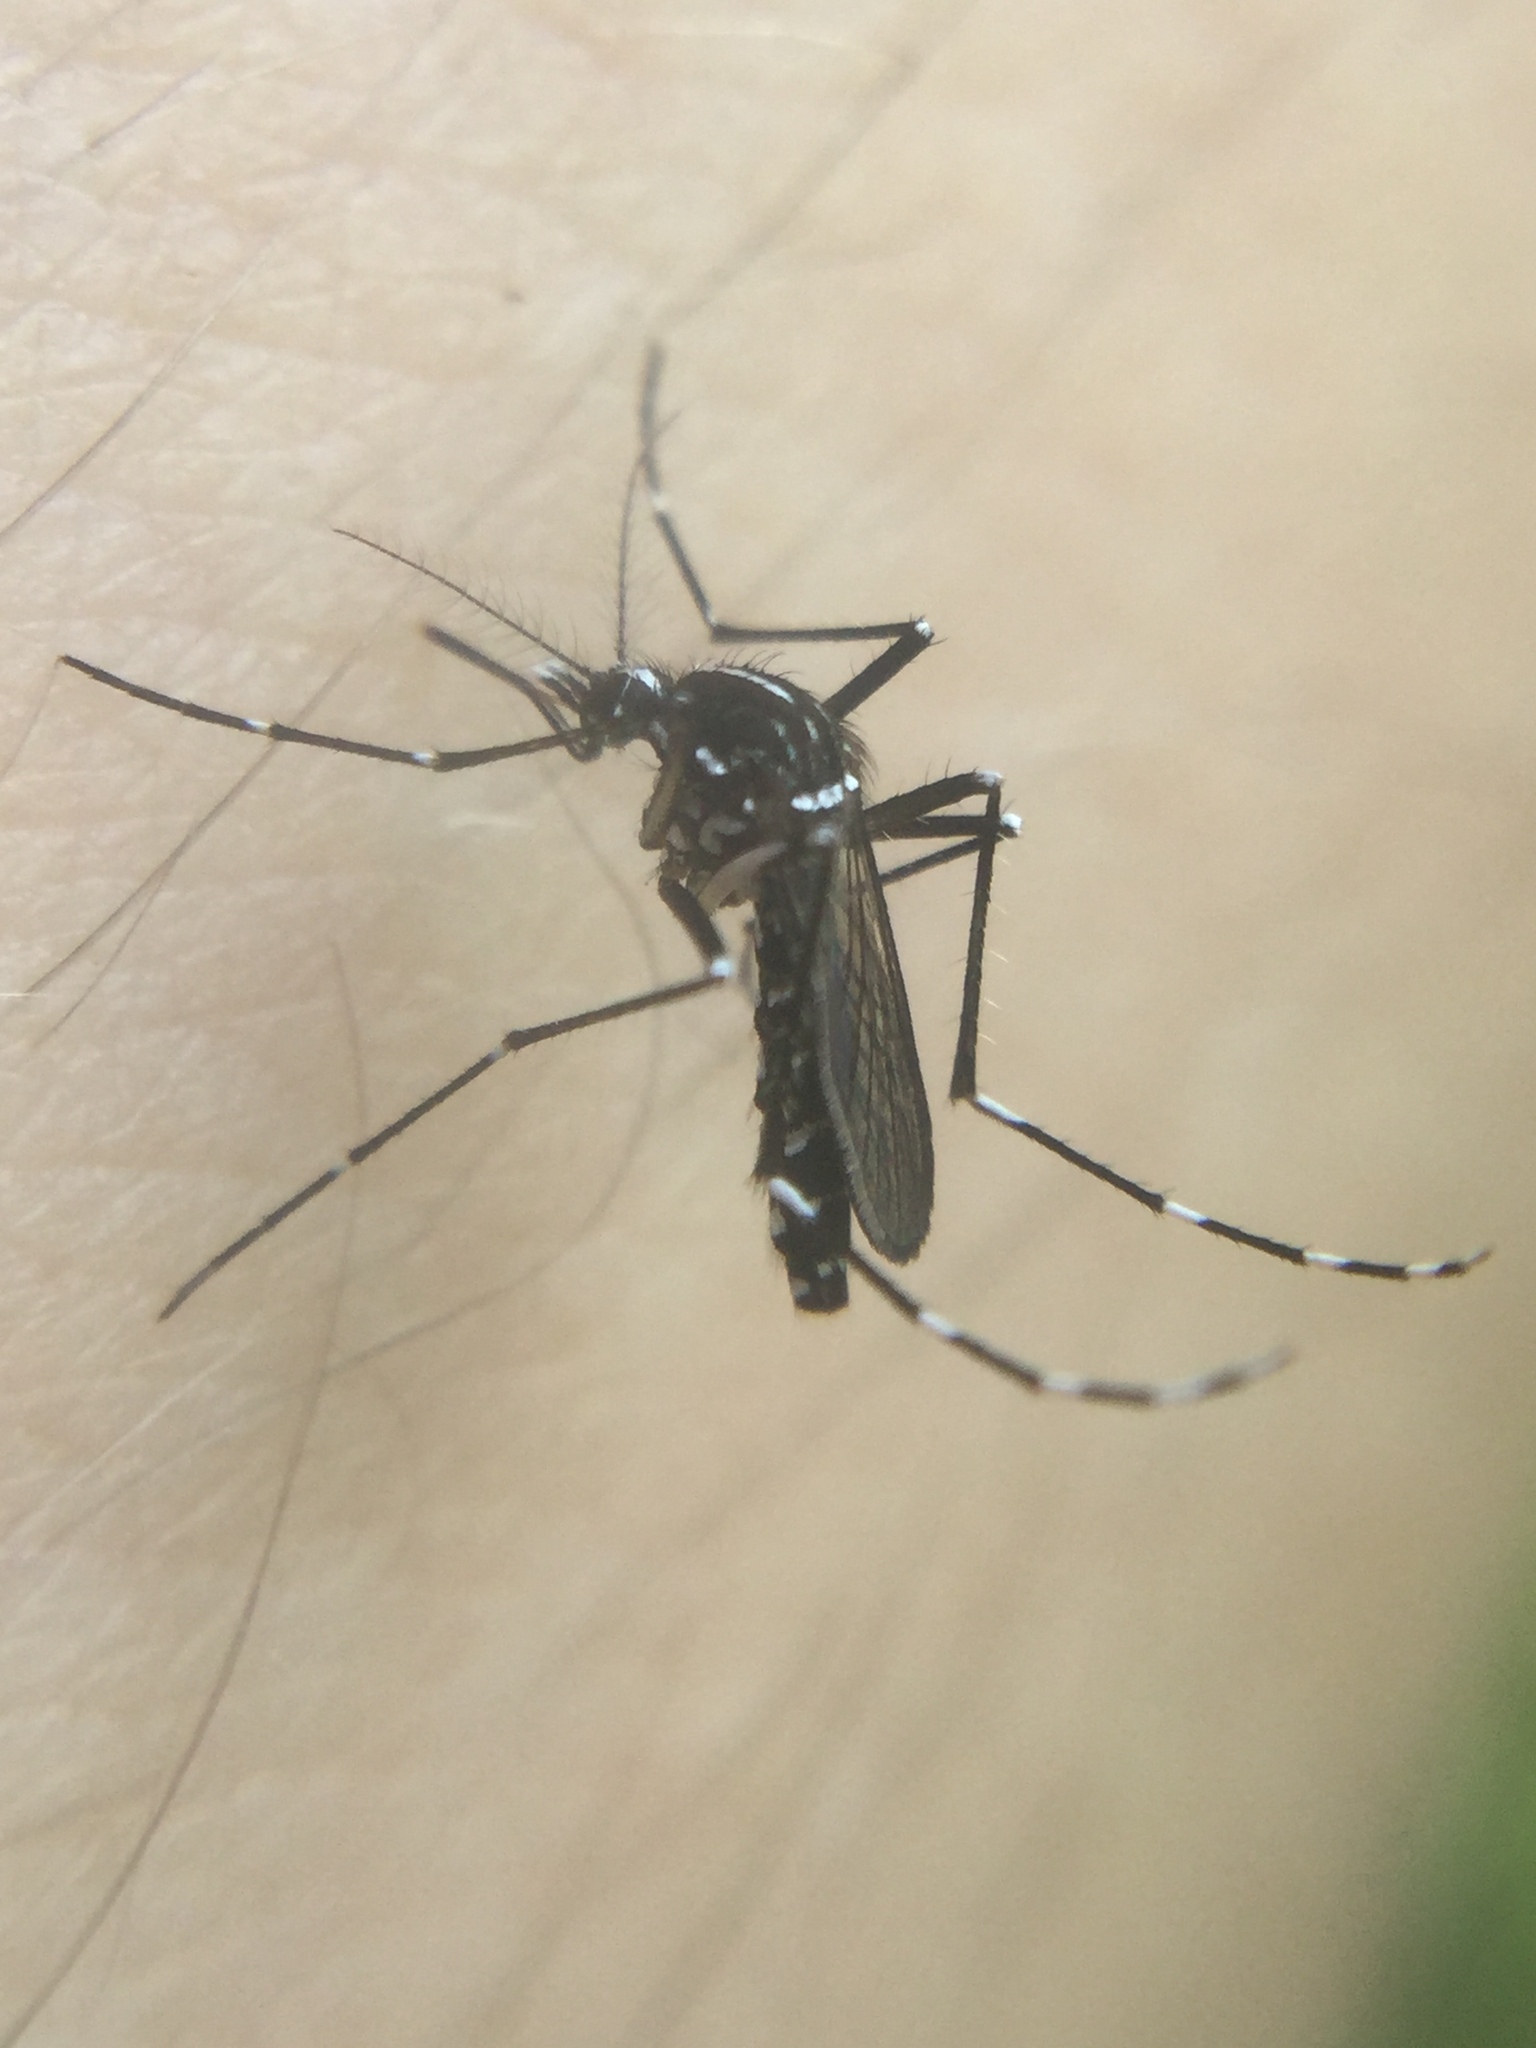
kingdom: Animalia
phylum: Arthropoda
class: Insecta
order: Diptera
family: Culicidae
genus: Aedes
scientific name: Aedes albopictus
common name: Tiger mosquito
